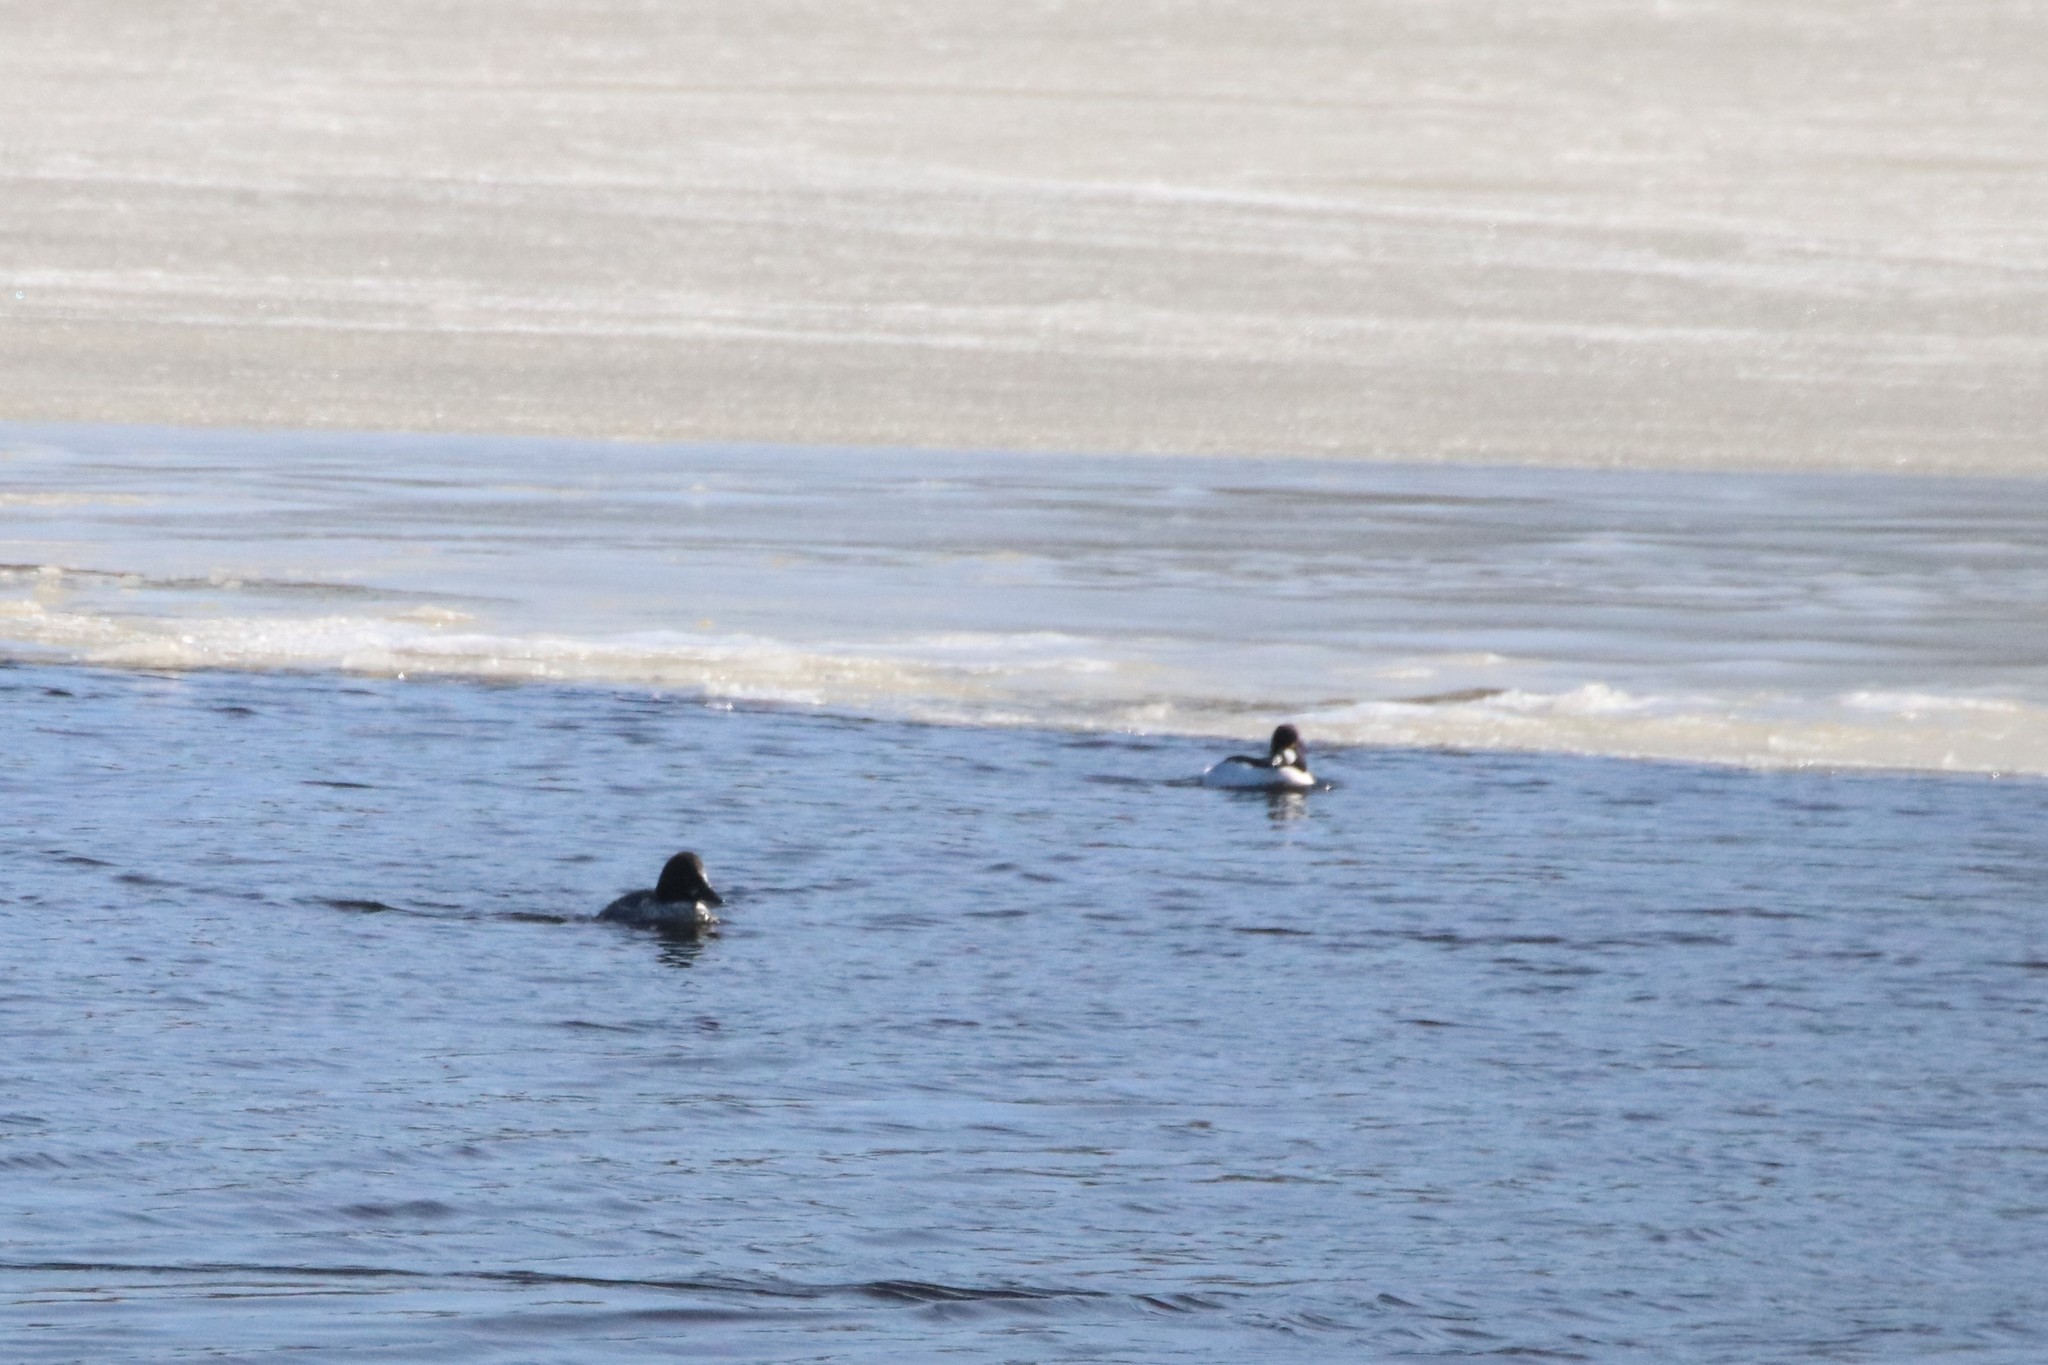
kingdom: Animalia
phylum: Chordata
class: Aves
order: Anseriformes
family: Anatidae
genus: Bucephala
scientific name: Bucephala clangula
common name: Common goldeneye
